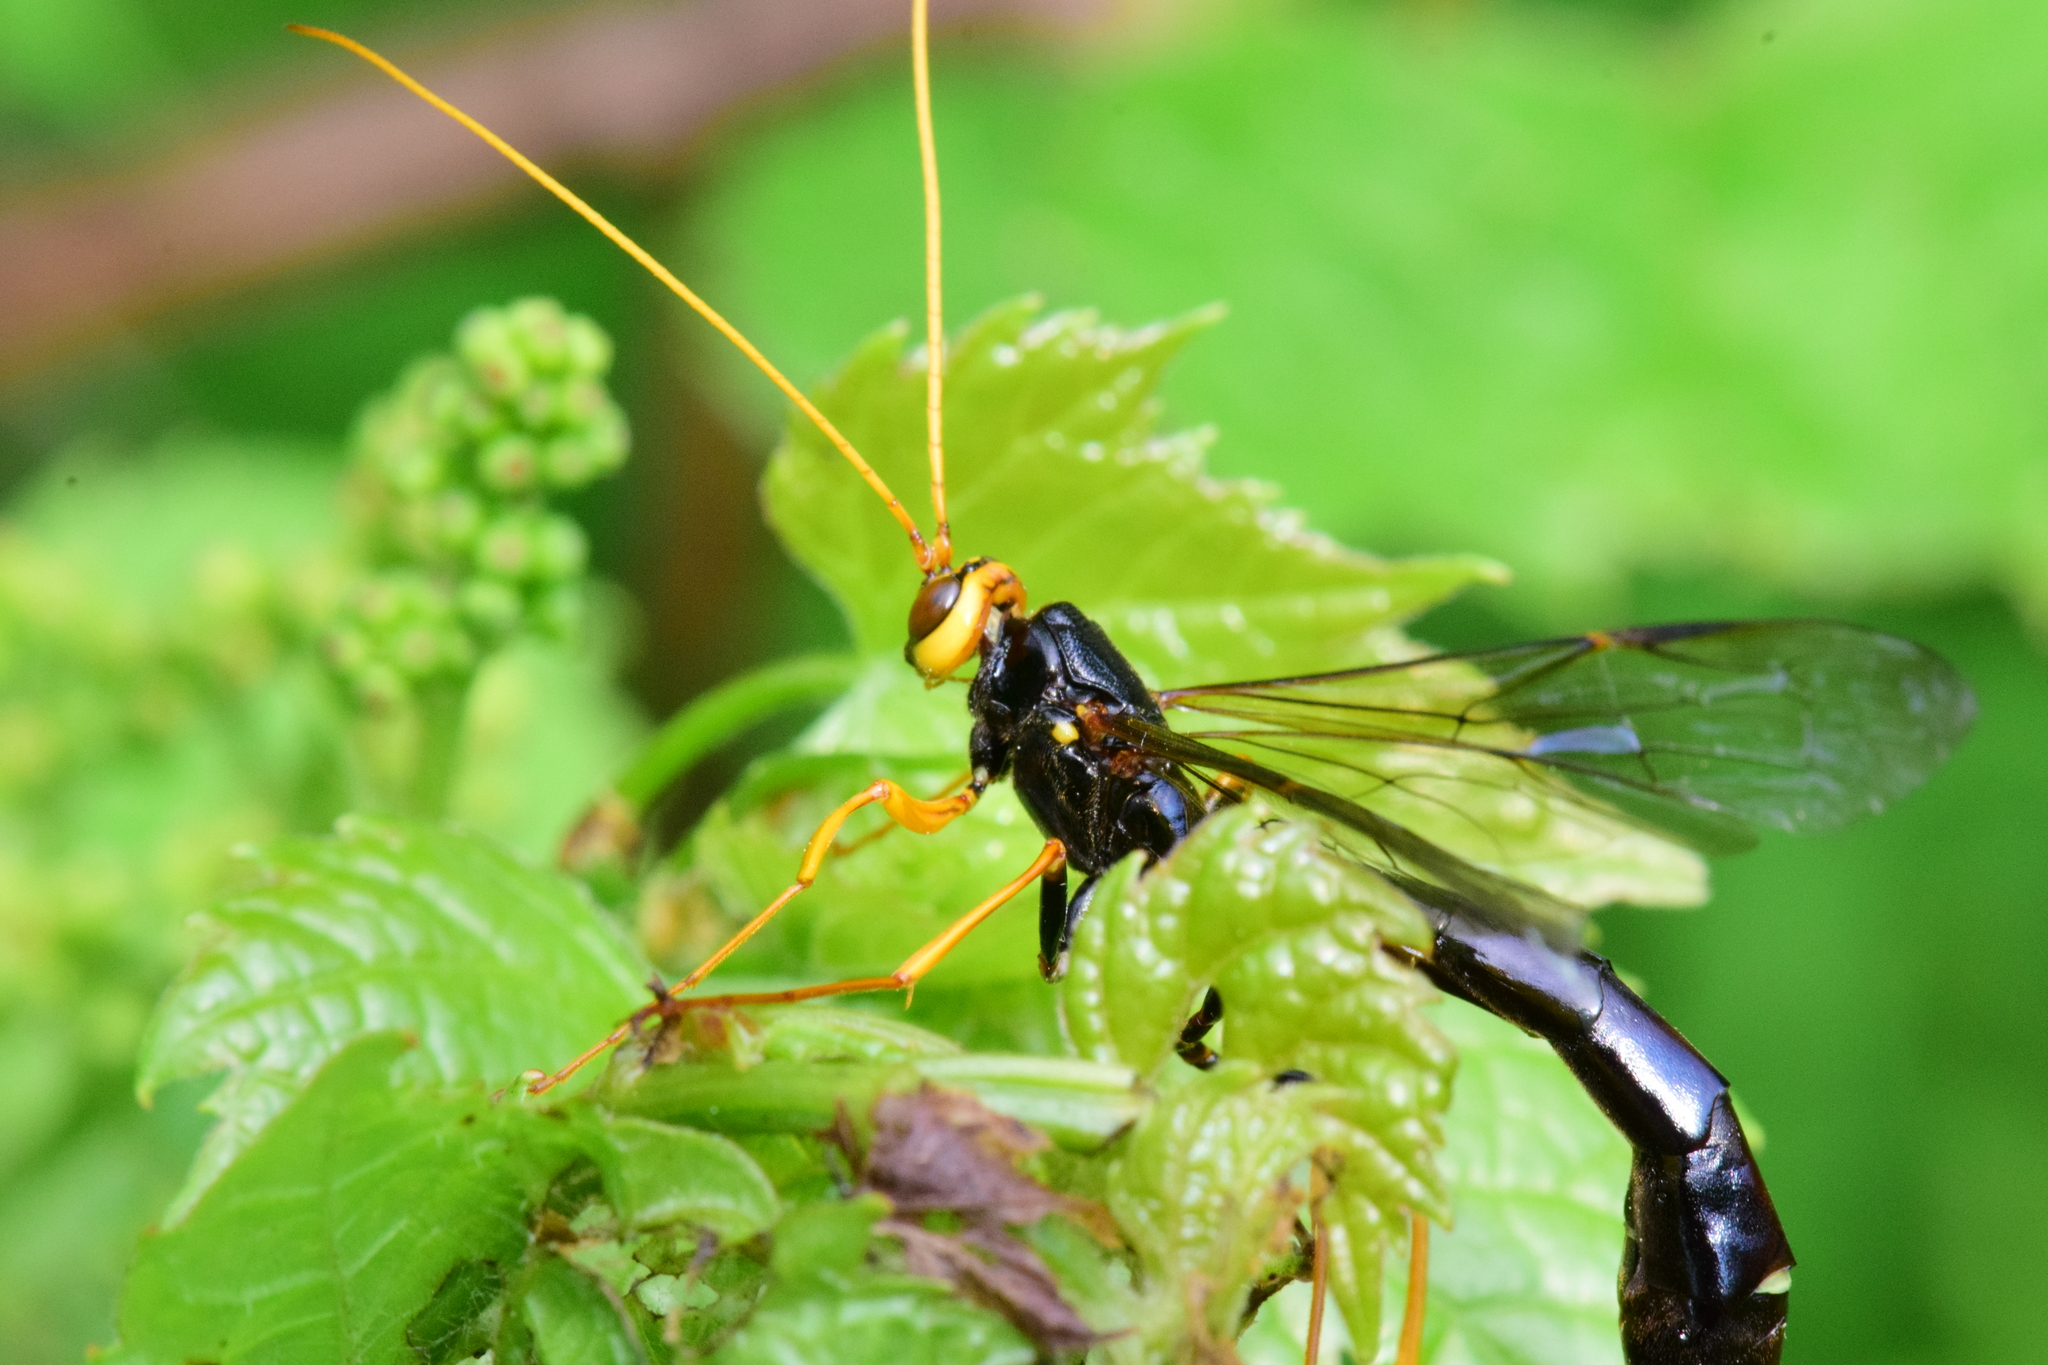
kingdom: Animalia
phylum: Arthropoda
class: Insecta
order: Hymenoptera
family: Ichneumonidae
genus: Megarhyssa
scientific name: Megarhyssa atrata
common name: Black giant ichneumonid wasp
